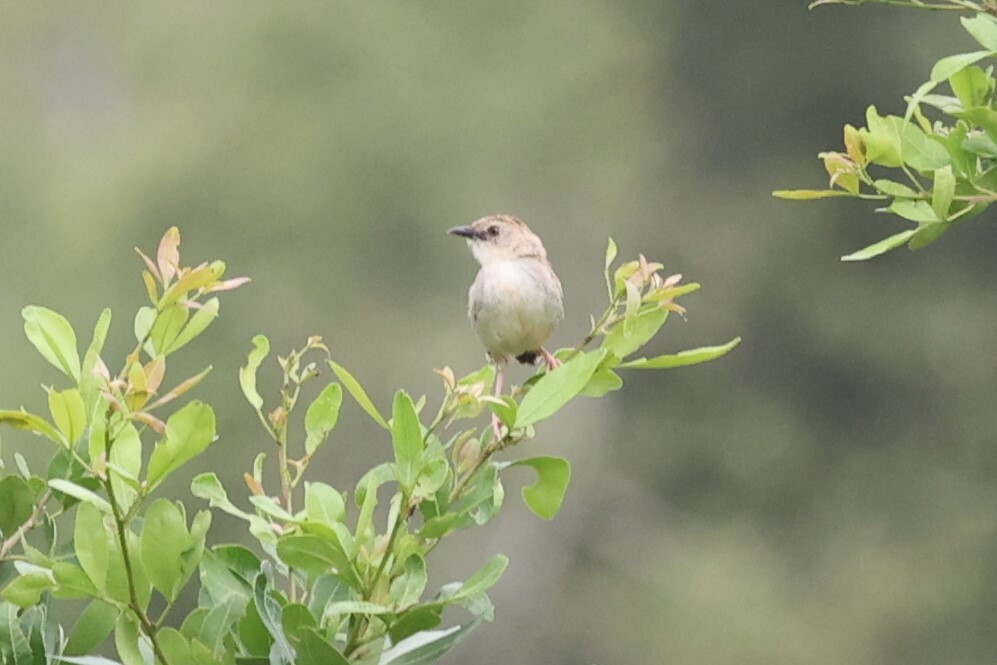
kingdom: Animalia
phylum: Chordata
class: Aves
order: Passeriformes
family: Cisticolidae
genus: Cisticola
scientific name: Cisticola natalensis
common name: Croaking cisticola
